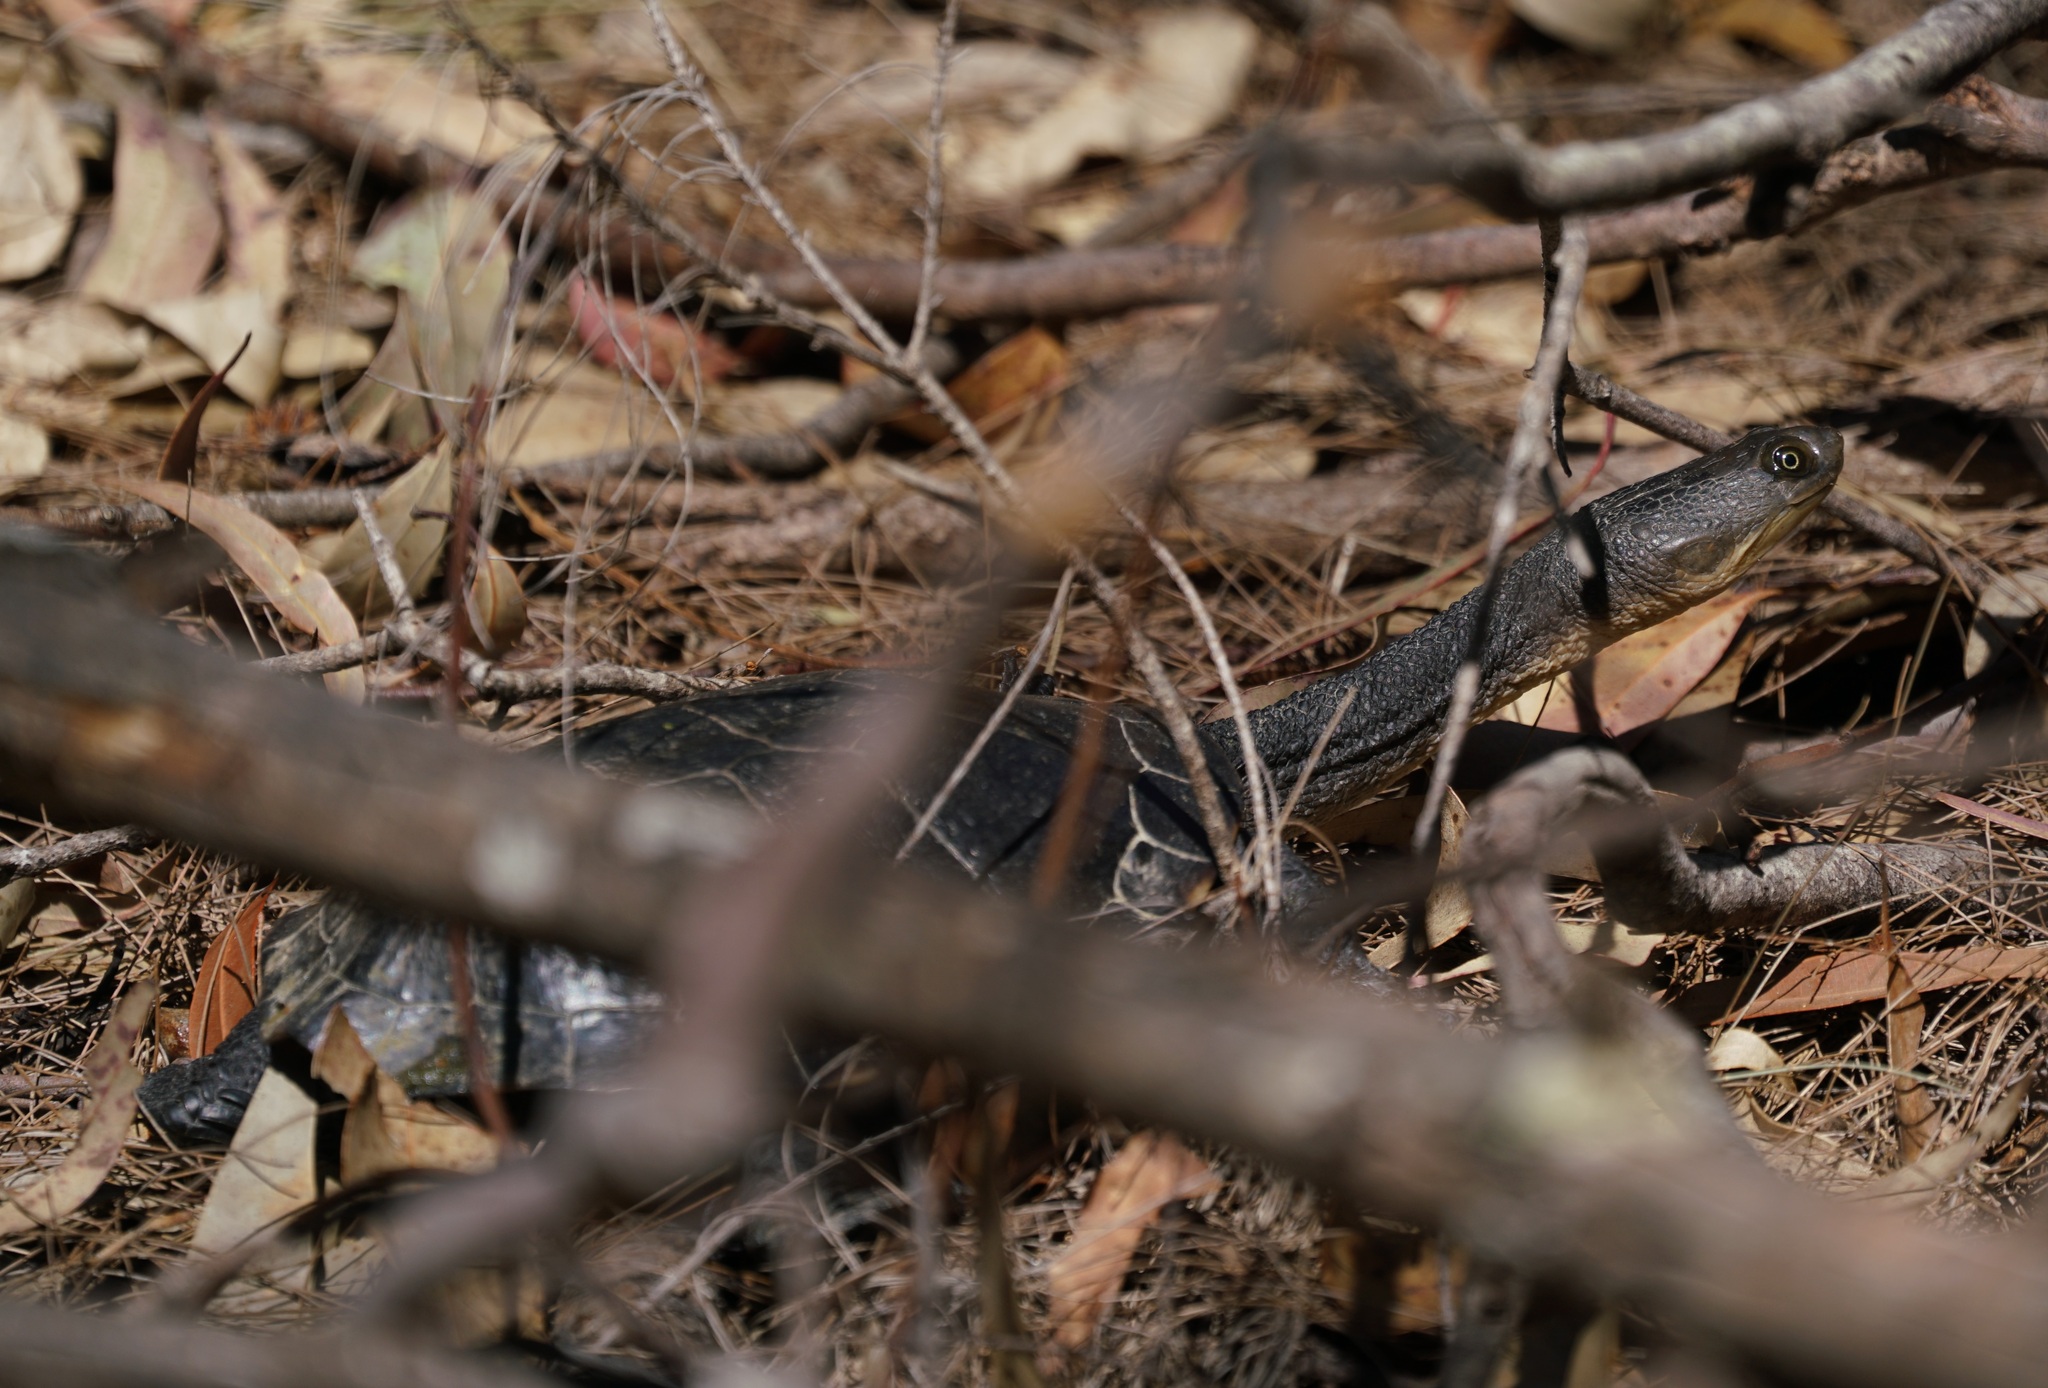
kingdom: Animalia
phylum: Chordata
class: Testudines
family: Chelidae
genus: Chelodina
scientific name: Chelodina longicollis
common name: Eastern snake-necked turtle
